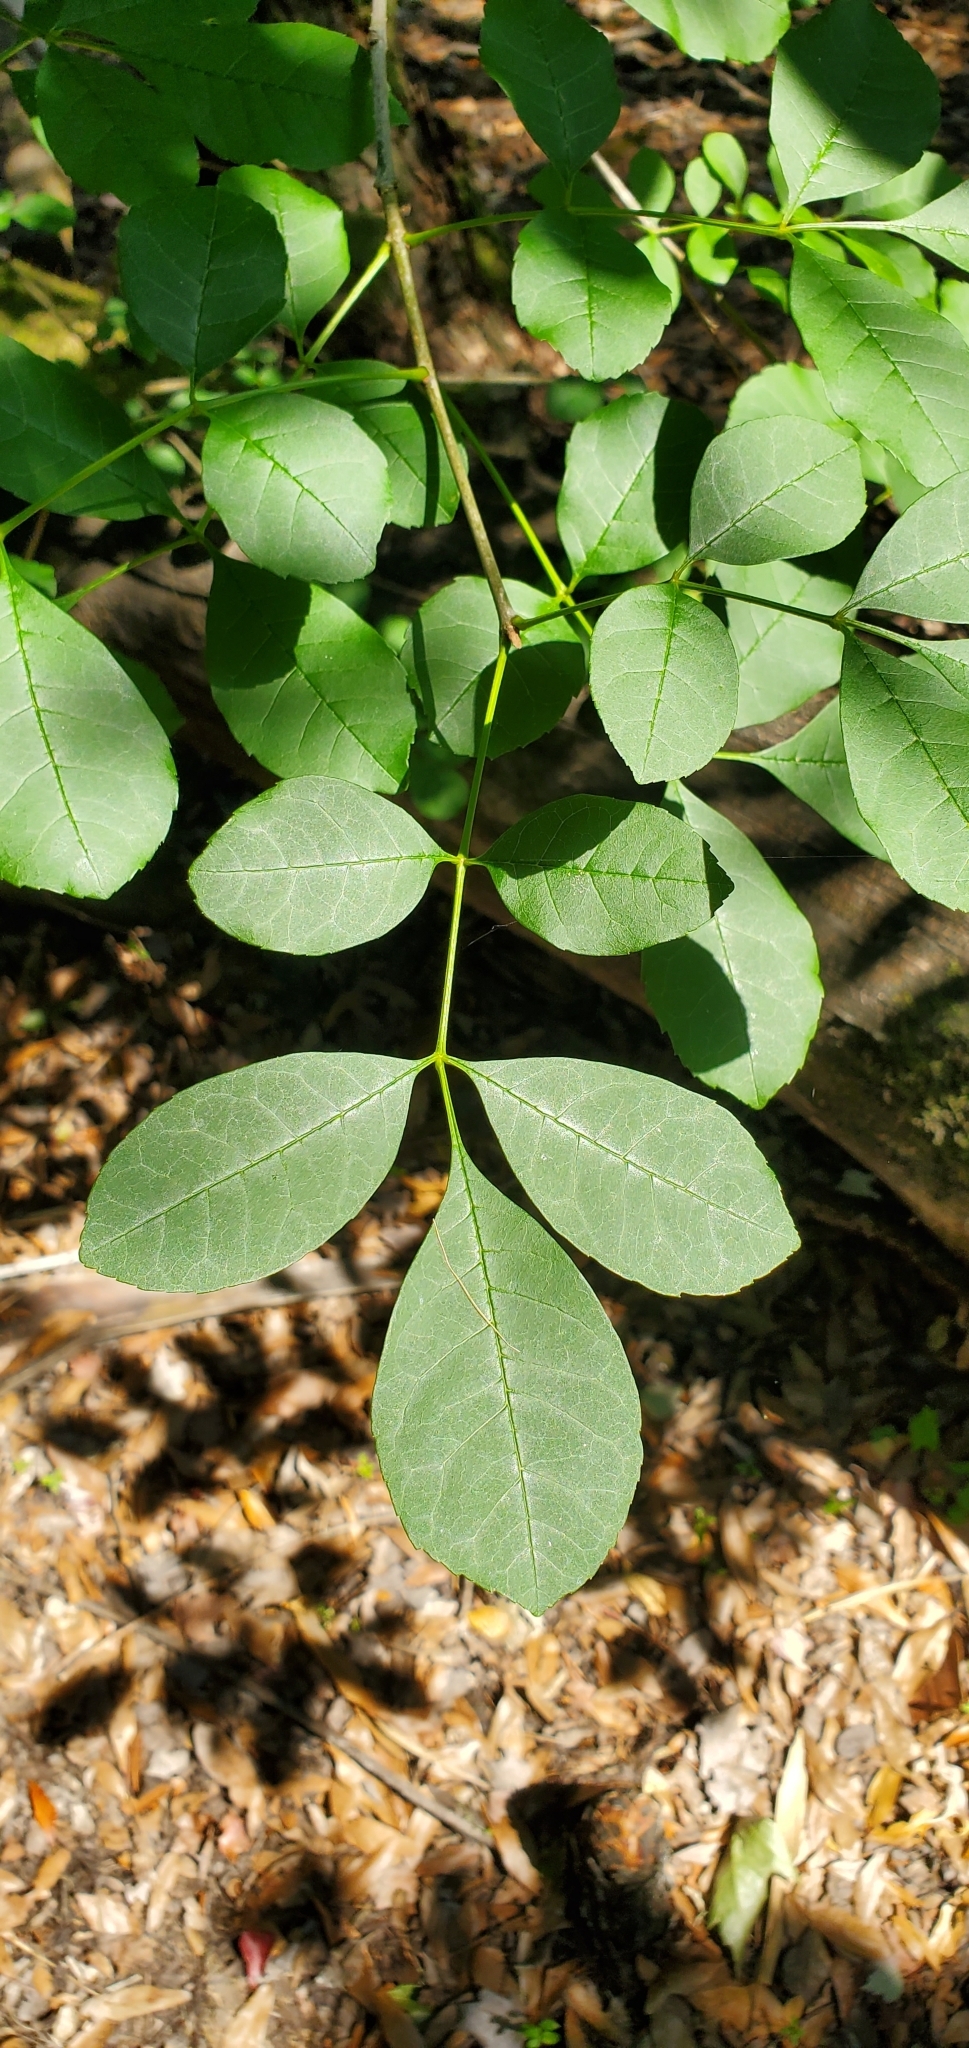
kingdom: Plantae
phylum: Tracheophyta
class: Magnoliopsida
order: Lamiales
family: Oleaceae
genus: Fraxinus
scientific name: Fraxinus caroliniana
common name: Carolina ash
